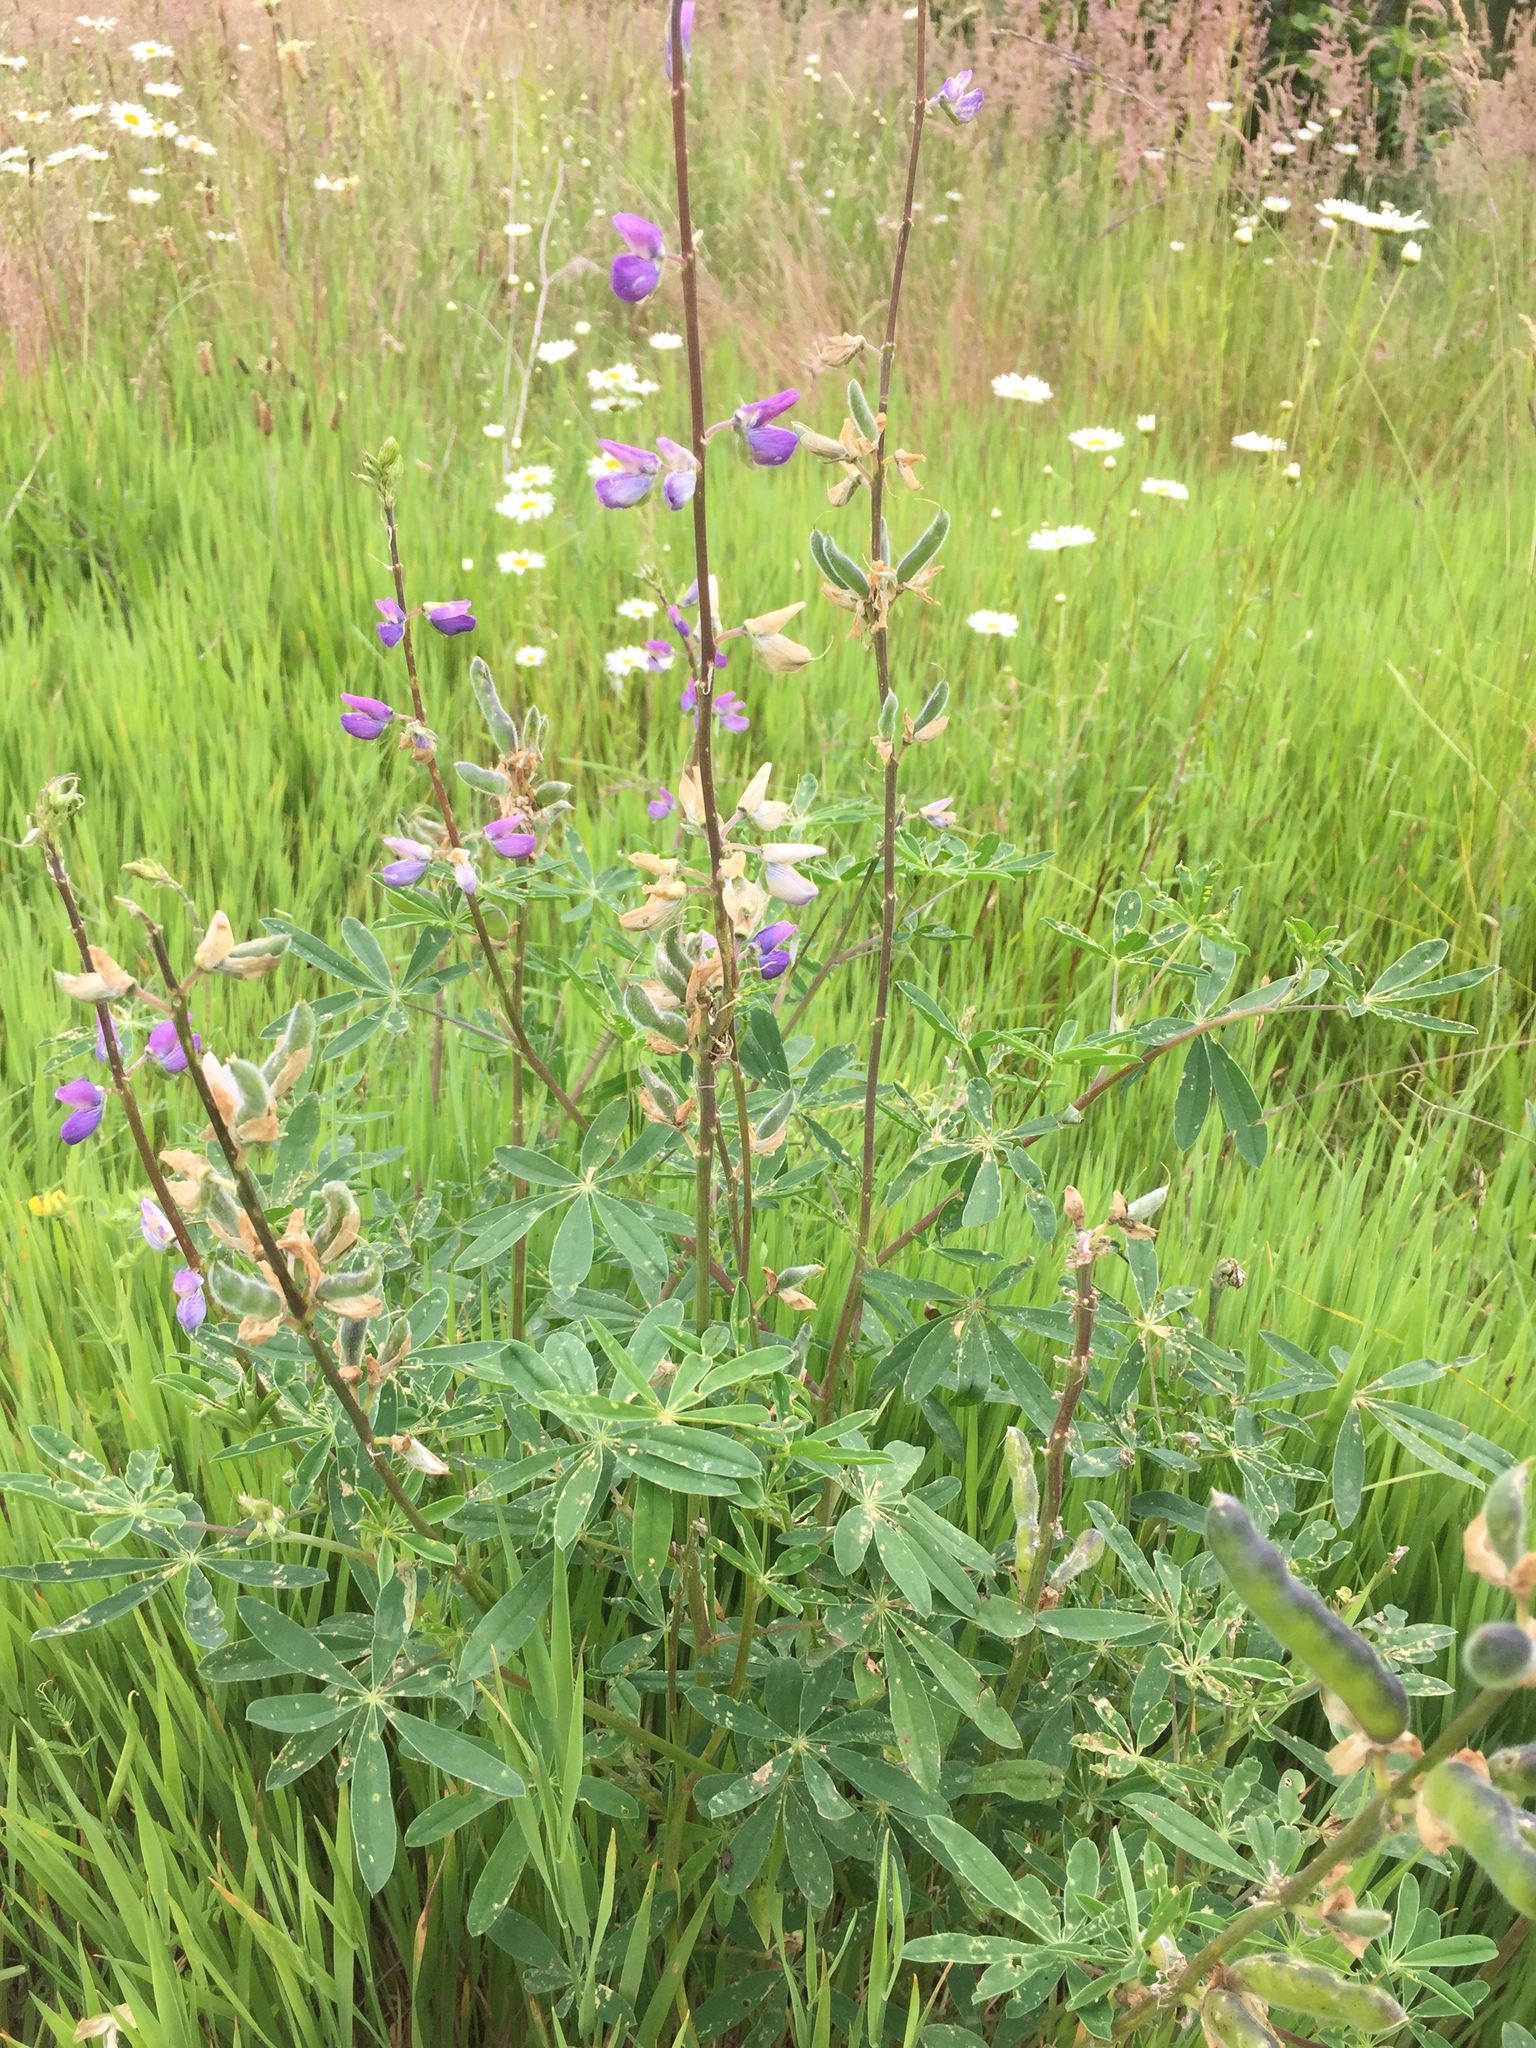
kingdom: Plantae
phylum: Tracheophyta
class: Magnoliopsida
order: Fabales
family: Fabaceae
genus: Lupinus
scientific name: Lupinus rivularis
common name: Riverbank lupine
